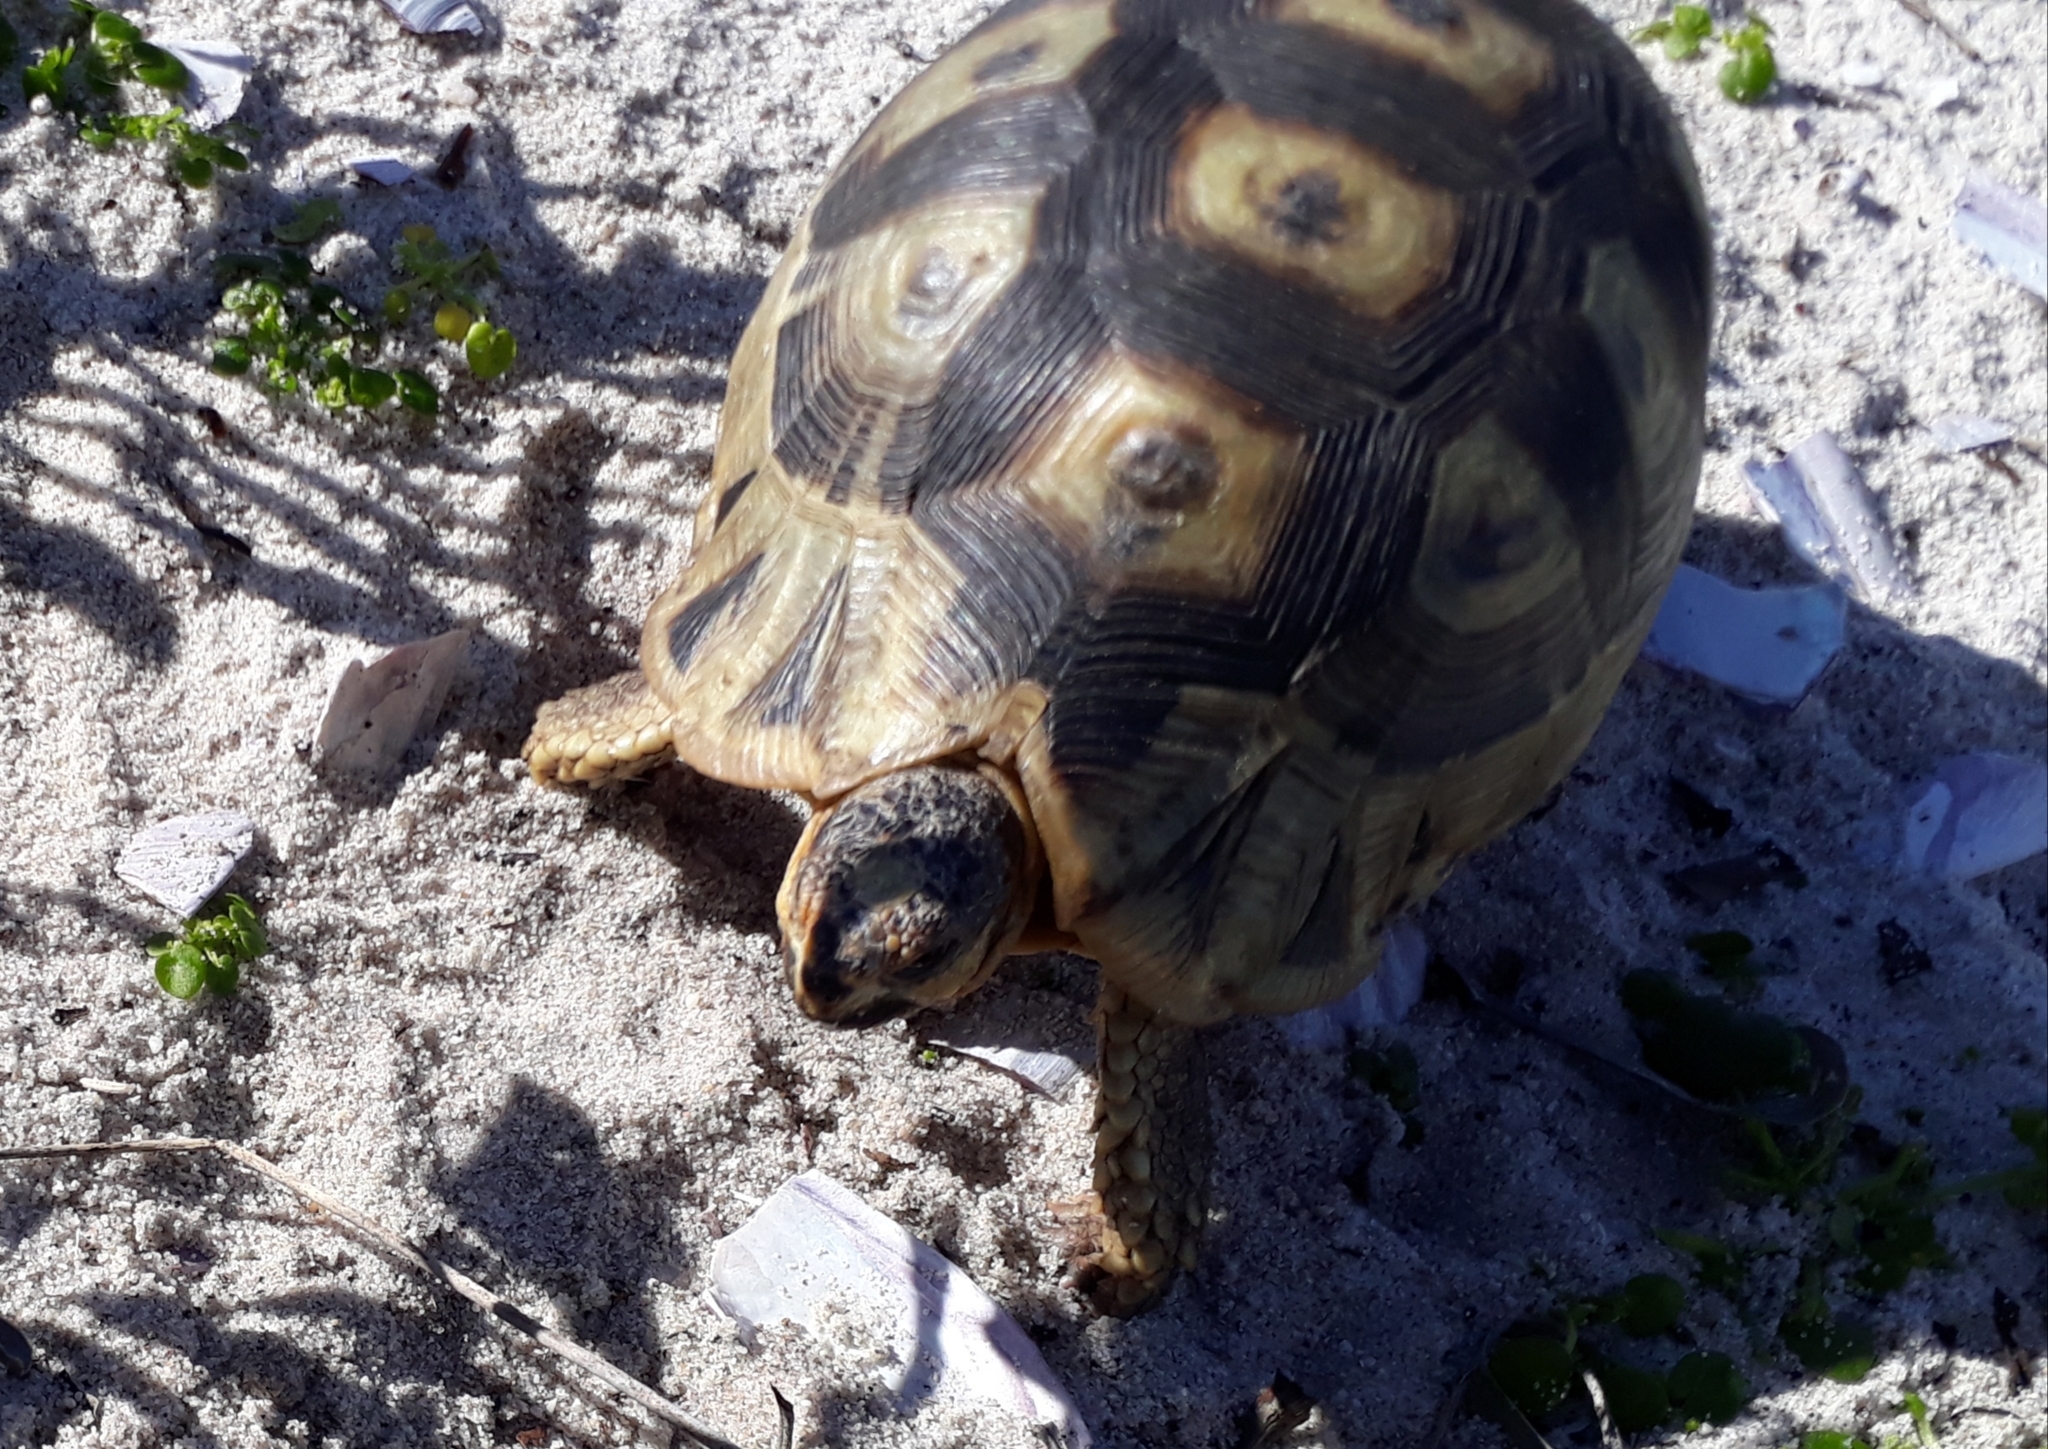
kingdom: Animalia
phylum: Chordata
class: Testudines
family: Testudinidae
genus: Chersina
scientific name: Chersina angulata
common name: South african bowsprit tortoise
